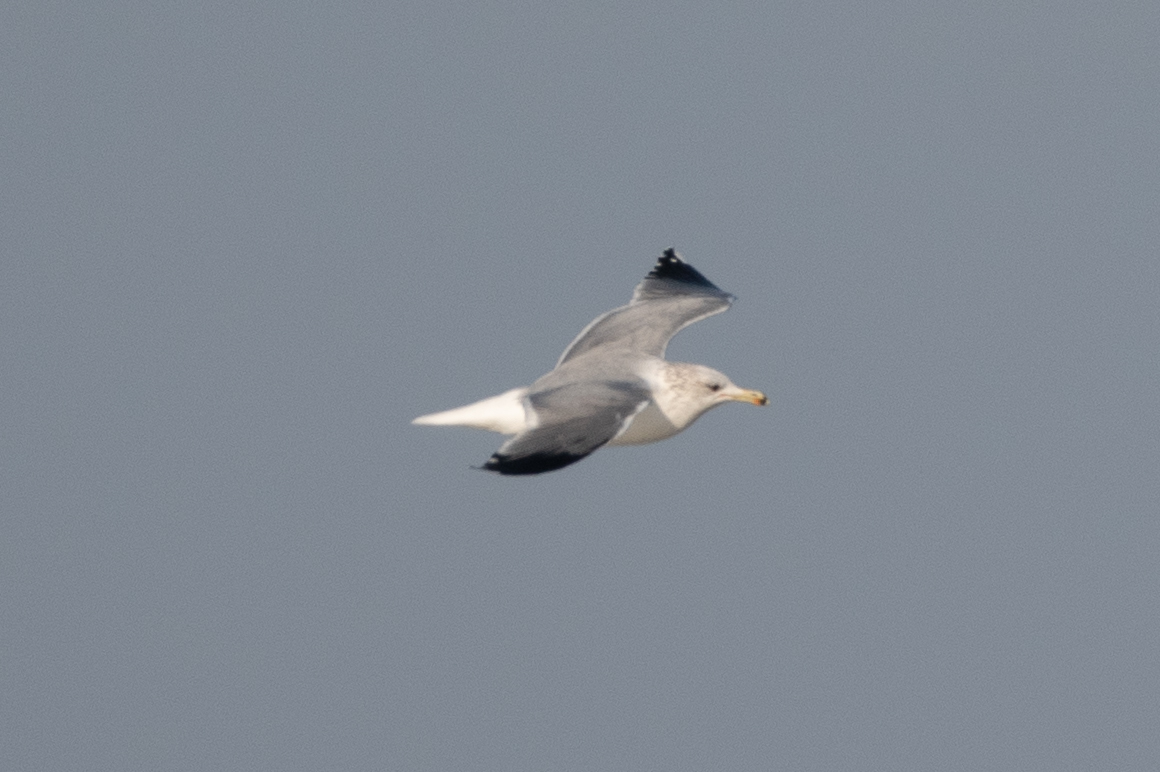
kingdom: Animalia
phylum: Chordata
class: Aves
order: Charadriiformes
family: Laridae
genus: Larus
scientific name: Larus californicus
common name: California gull
